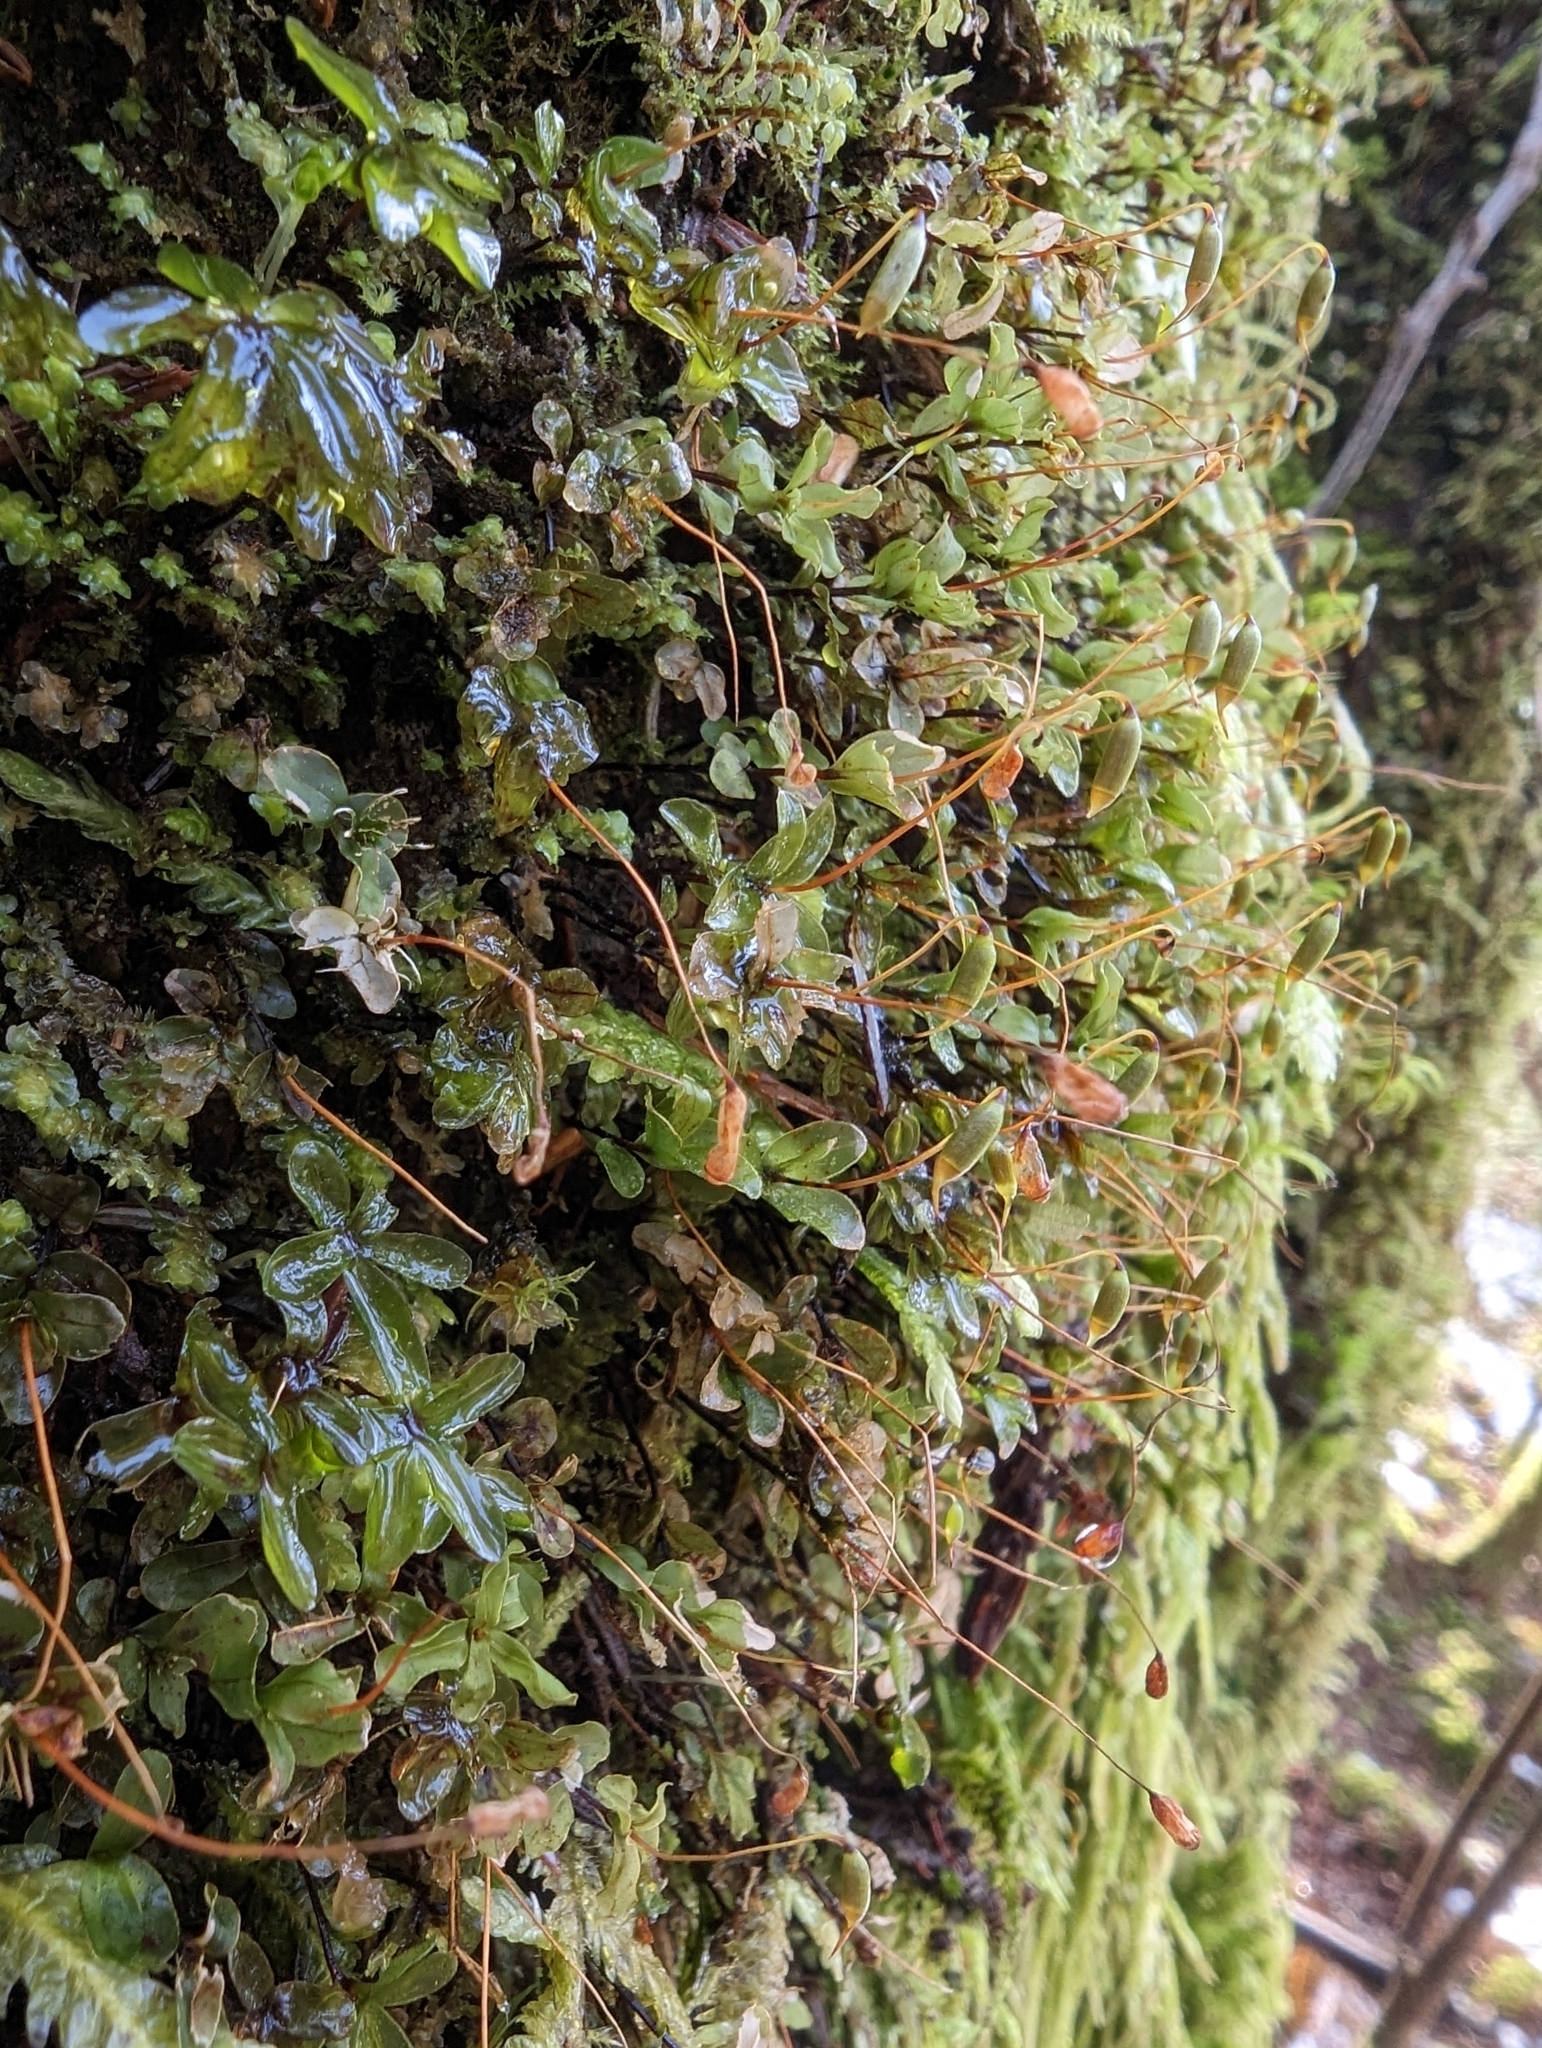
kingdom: Plantae
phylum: Bryophyta
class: Bryopsida
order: Bryales
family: Mniaceae
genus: Rhizomnium
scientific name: Rhizomnium glabrescens
